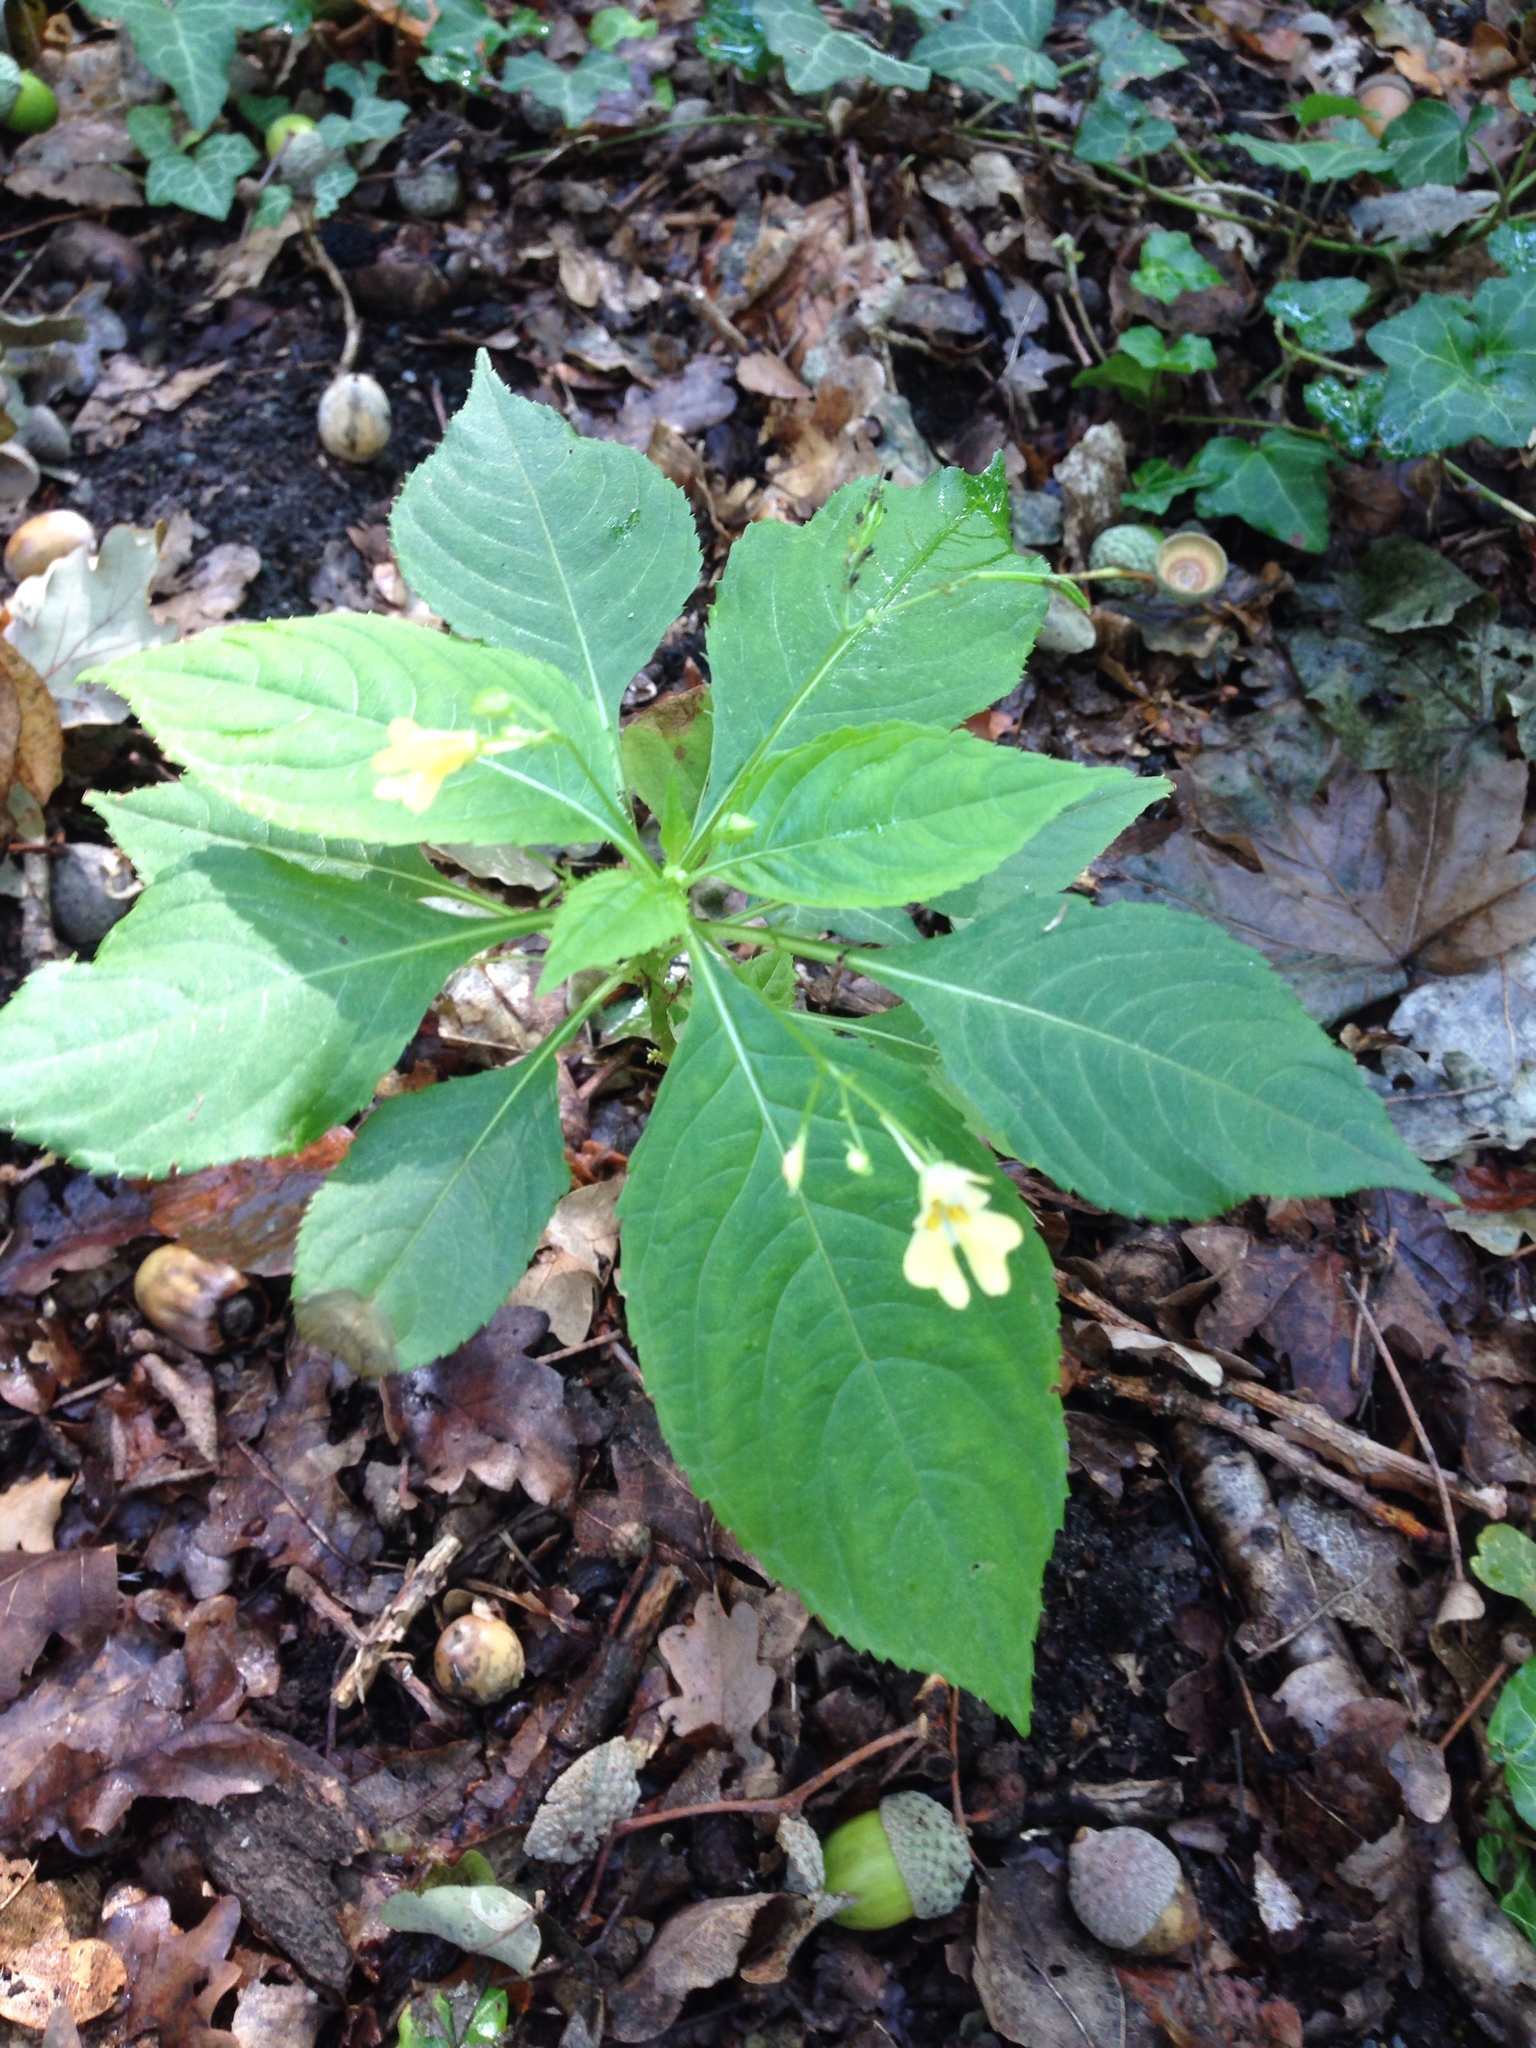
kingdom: Plantae
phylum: Tracheophyta
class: Magnoliopsida
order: Ericales
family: Balsaminaceae
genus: Impatiens
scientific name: Impatiens parviflora
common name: Small balsam
